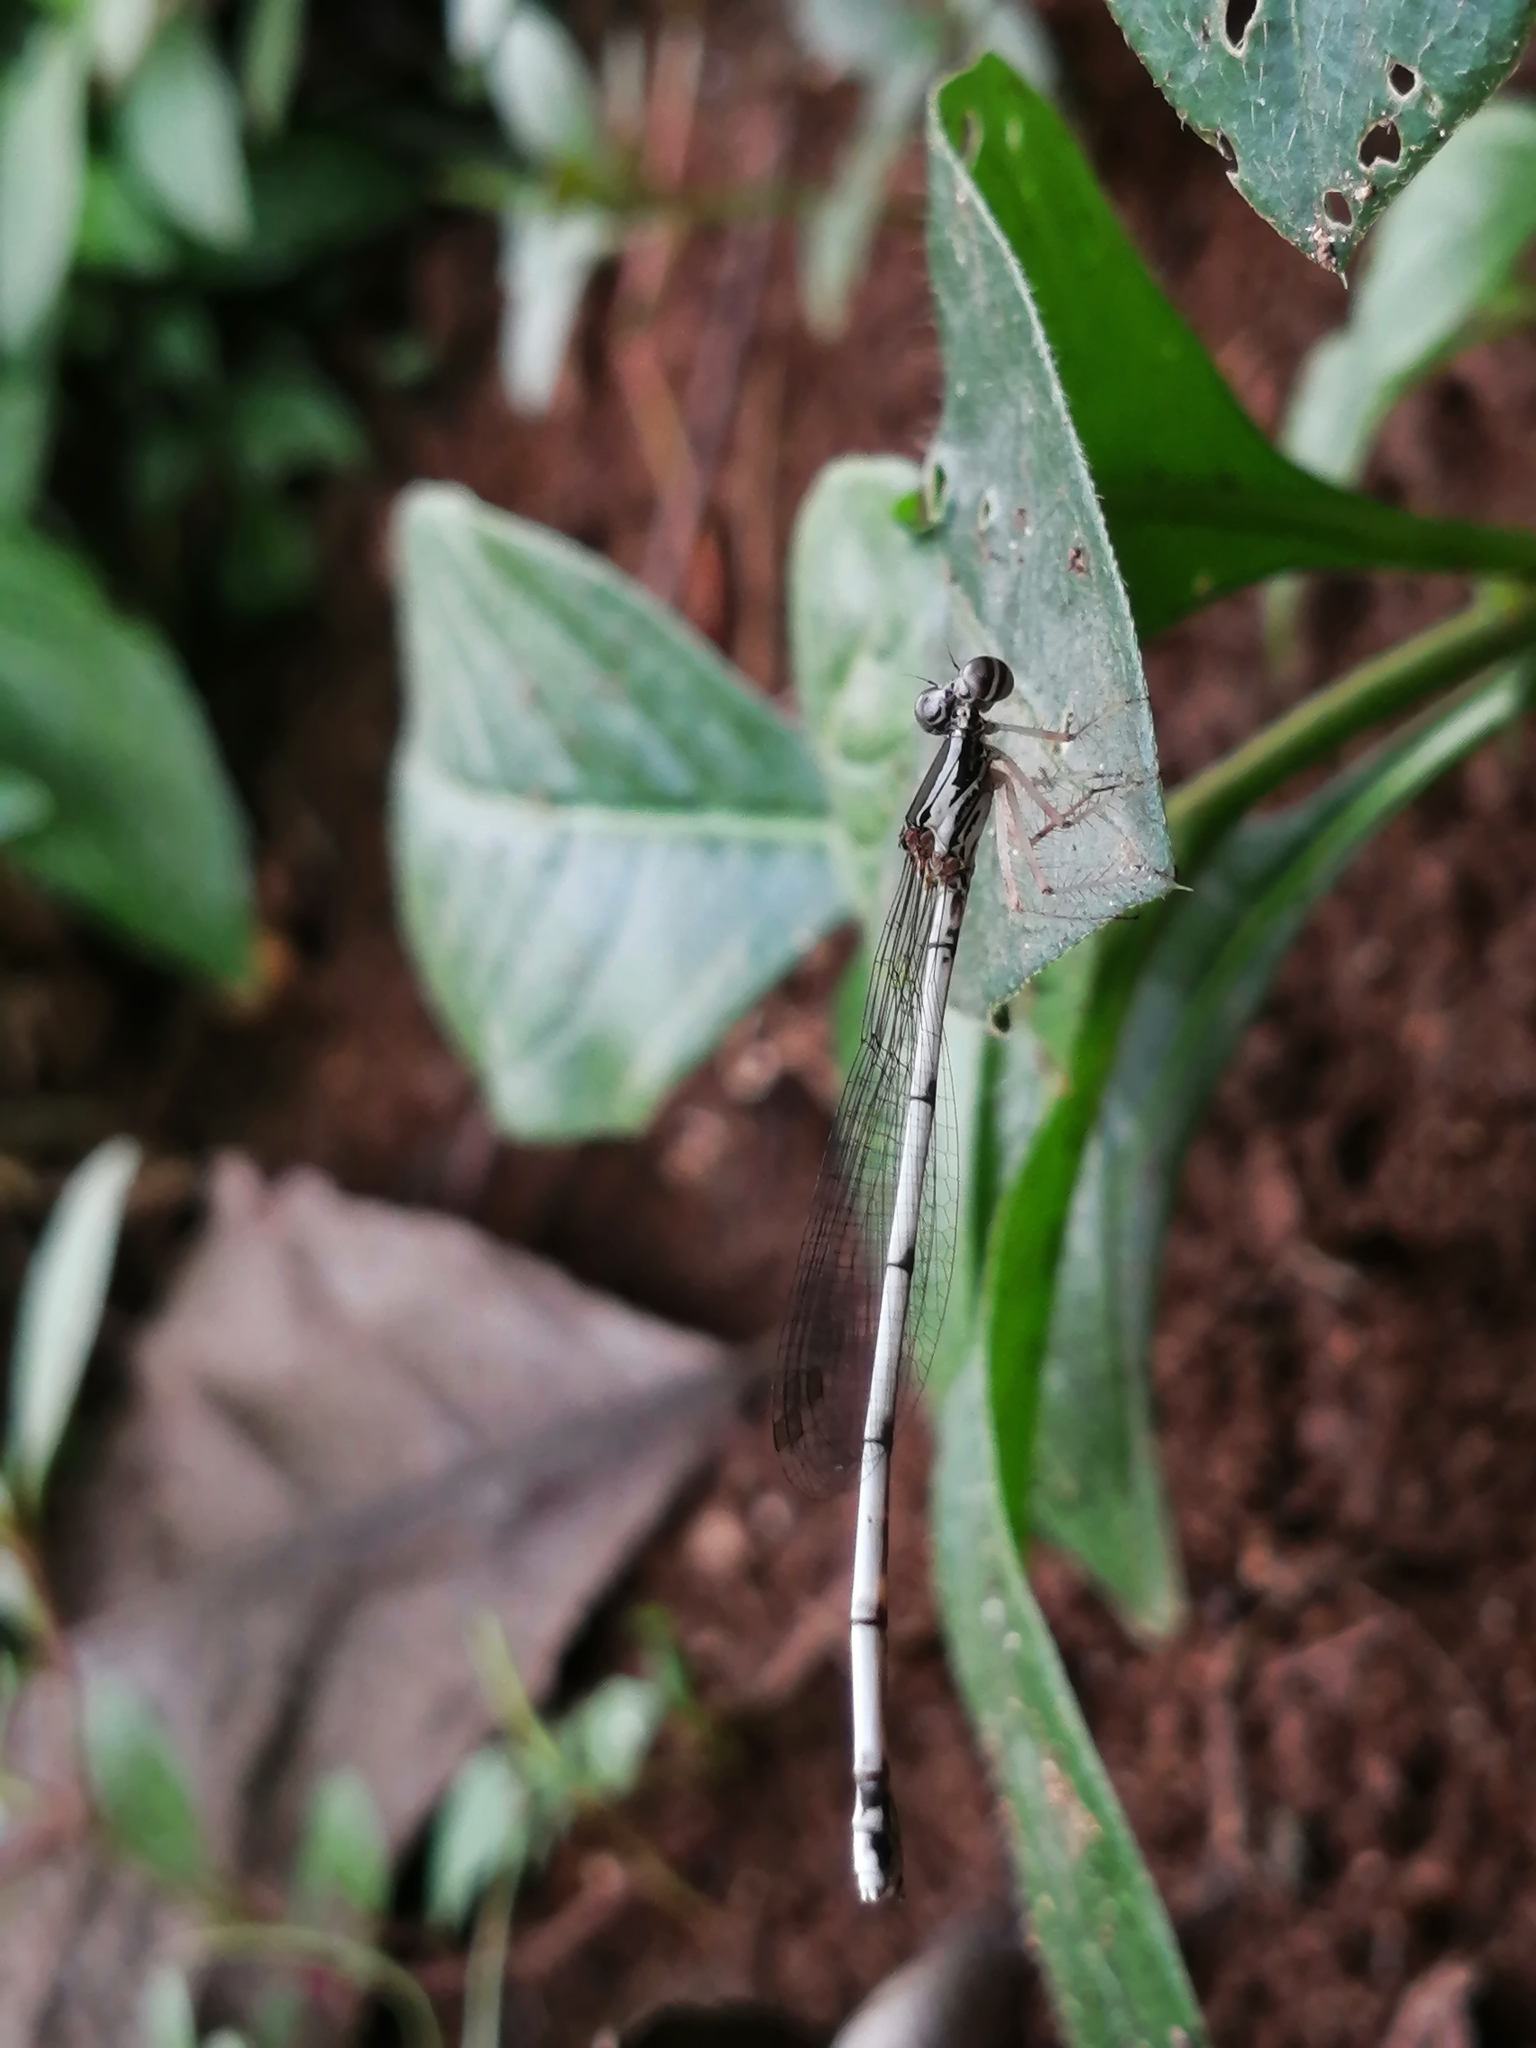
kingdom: Animalia
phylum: Arthropoda
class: Insecta
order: Odonata
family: Platycnemididae
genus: Copera
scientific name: Copera marginipes
